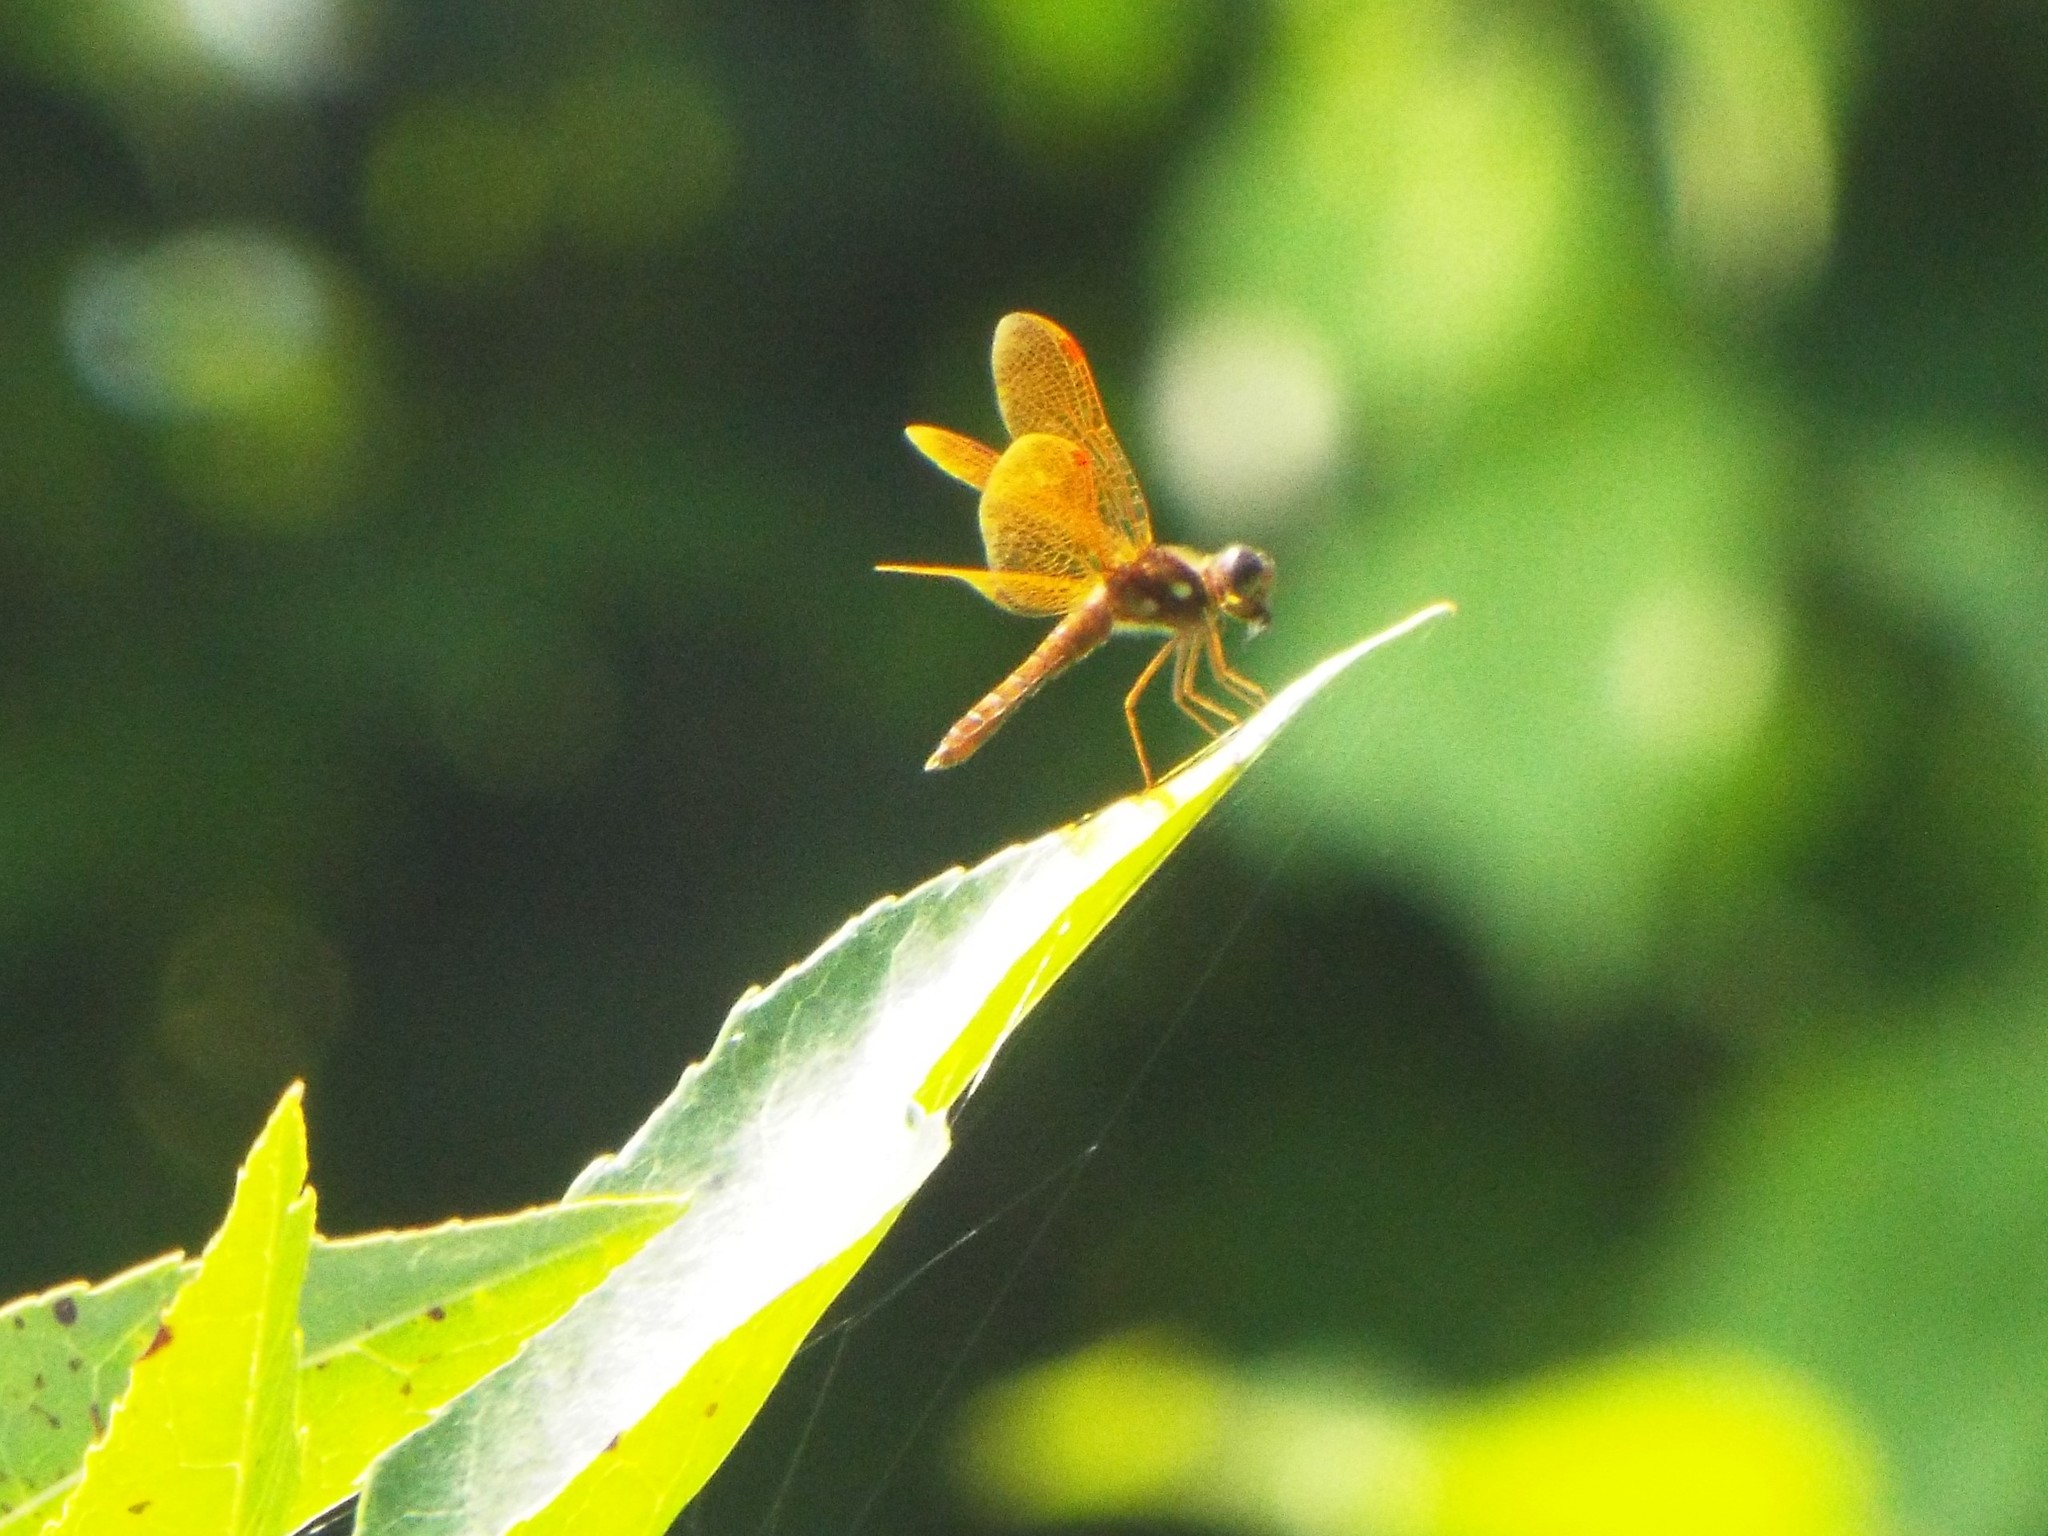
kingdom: Animalia
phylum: Arthropoda
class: Insecta
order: Odonata
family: Libellulidae
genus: Perithemis
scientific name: Perithemis tenera
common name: Eastern amberwing
